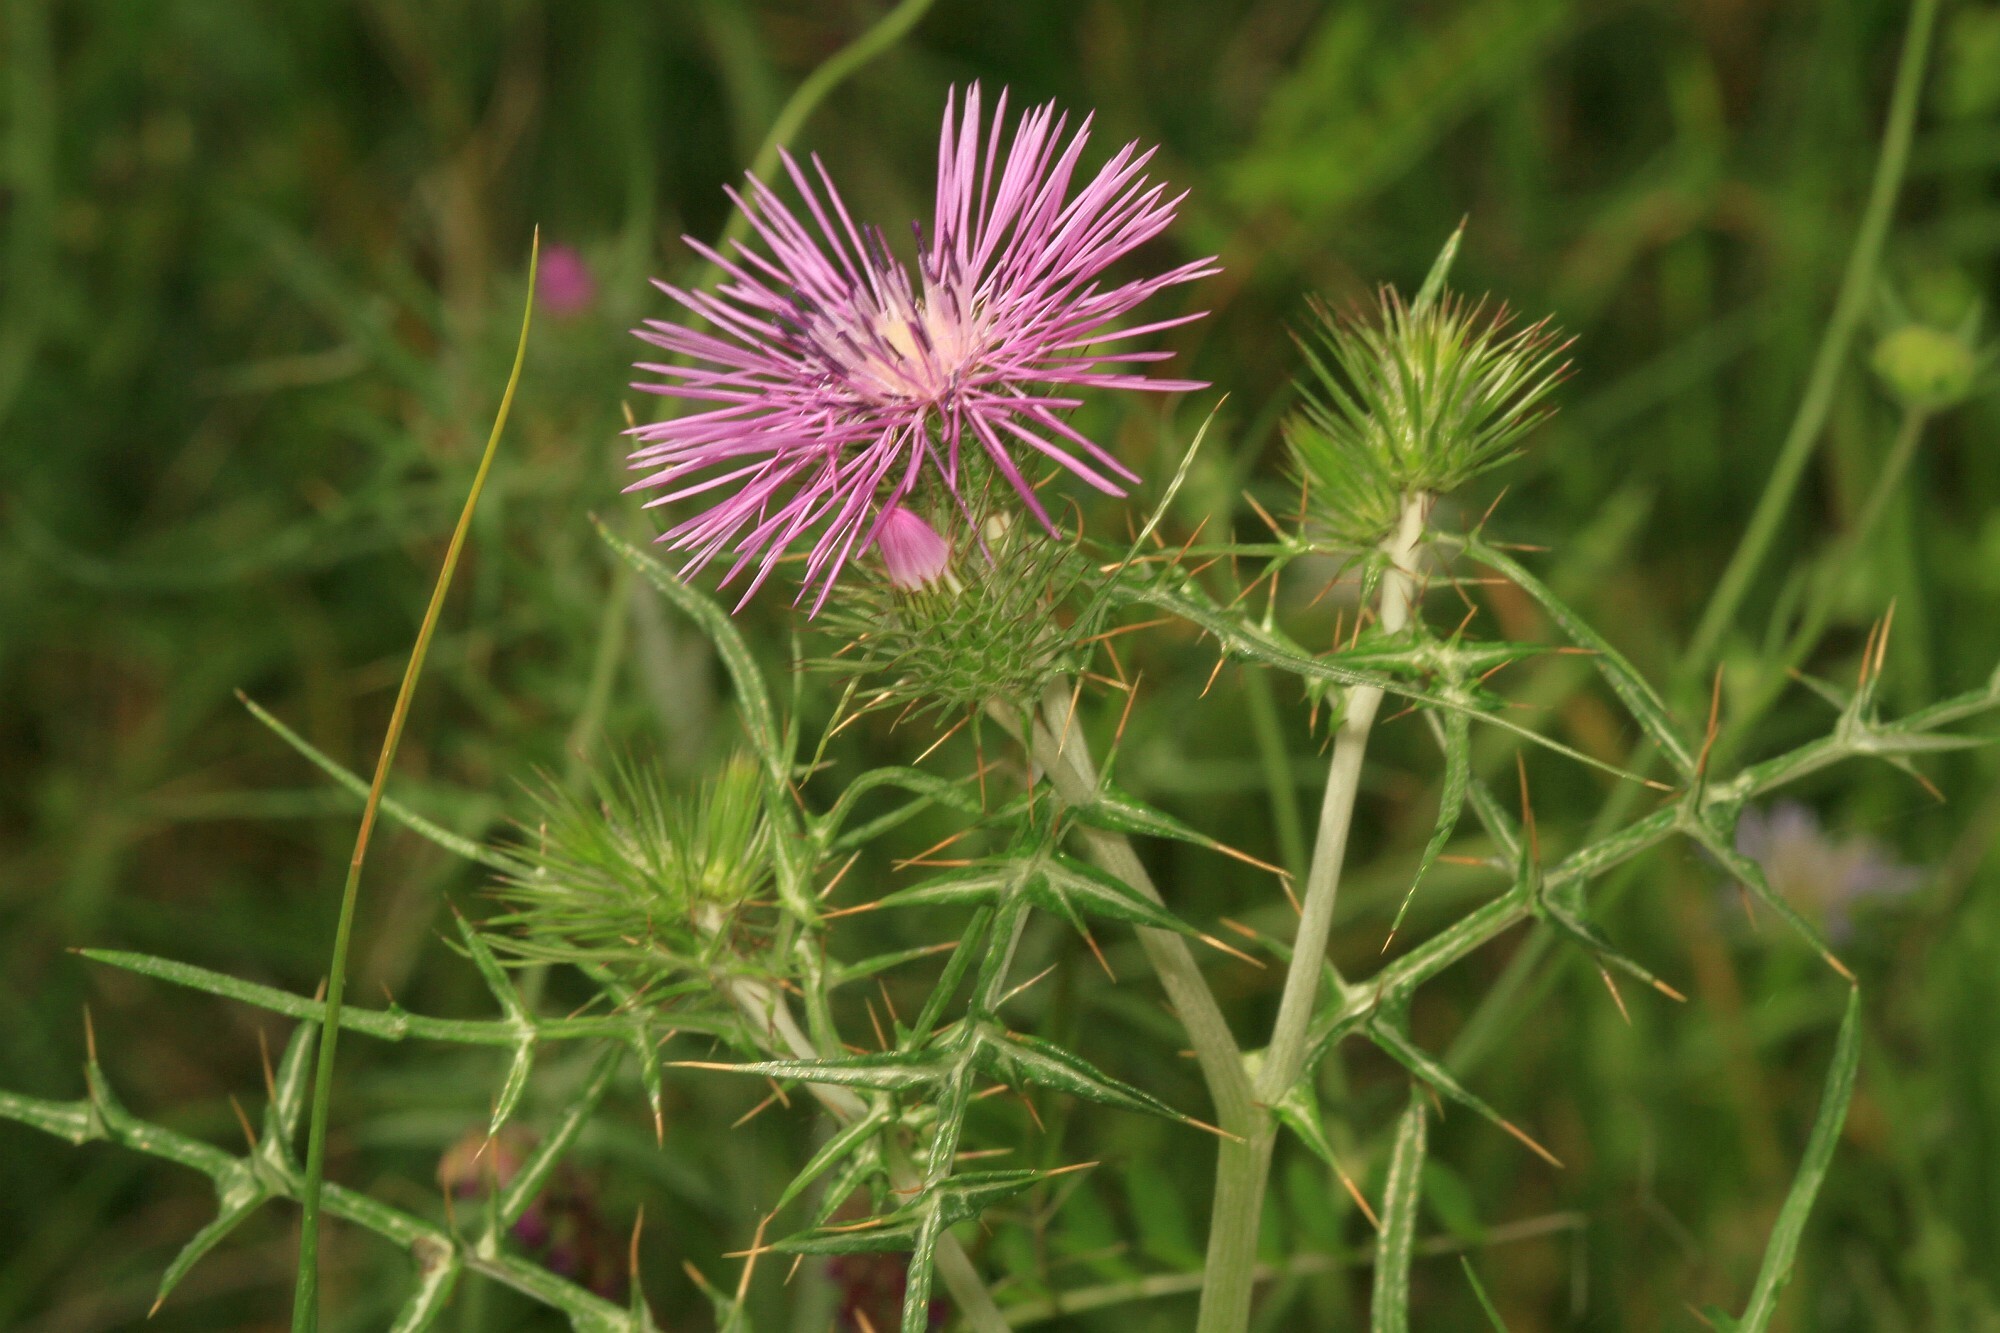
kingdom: Plantae
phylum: Tracheophyta
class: Magnoliopsida
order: Asterales
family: Asteraceae
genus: Galactites
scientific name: Galactites tomentosa
